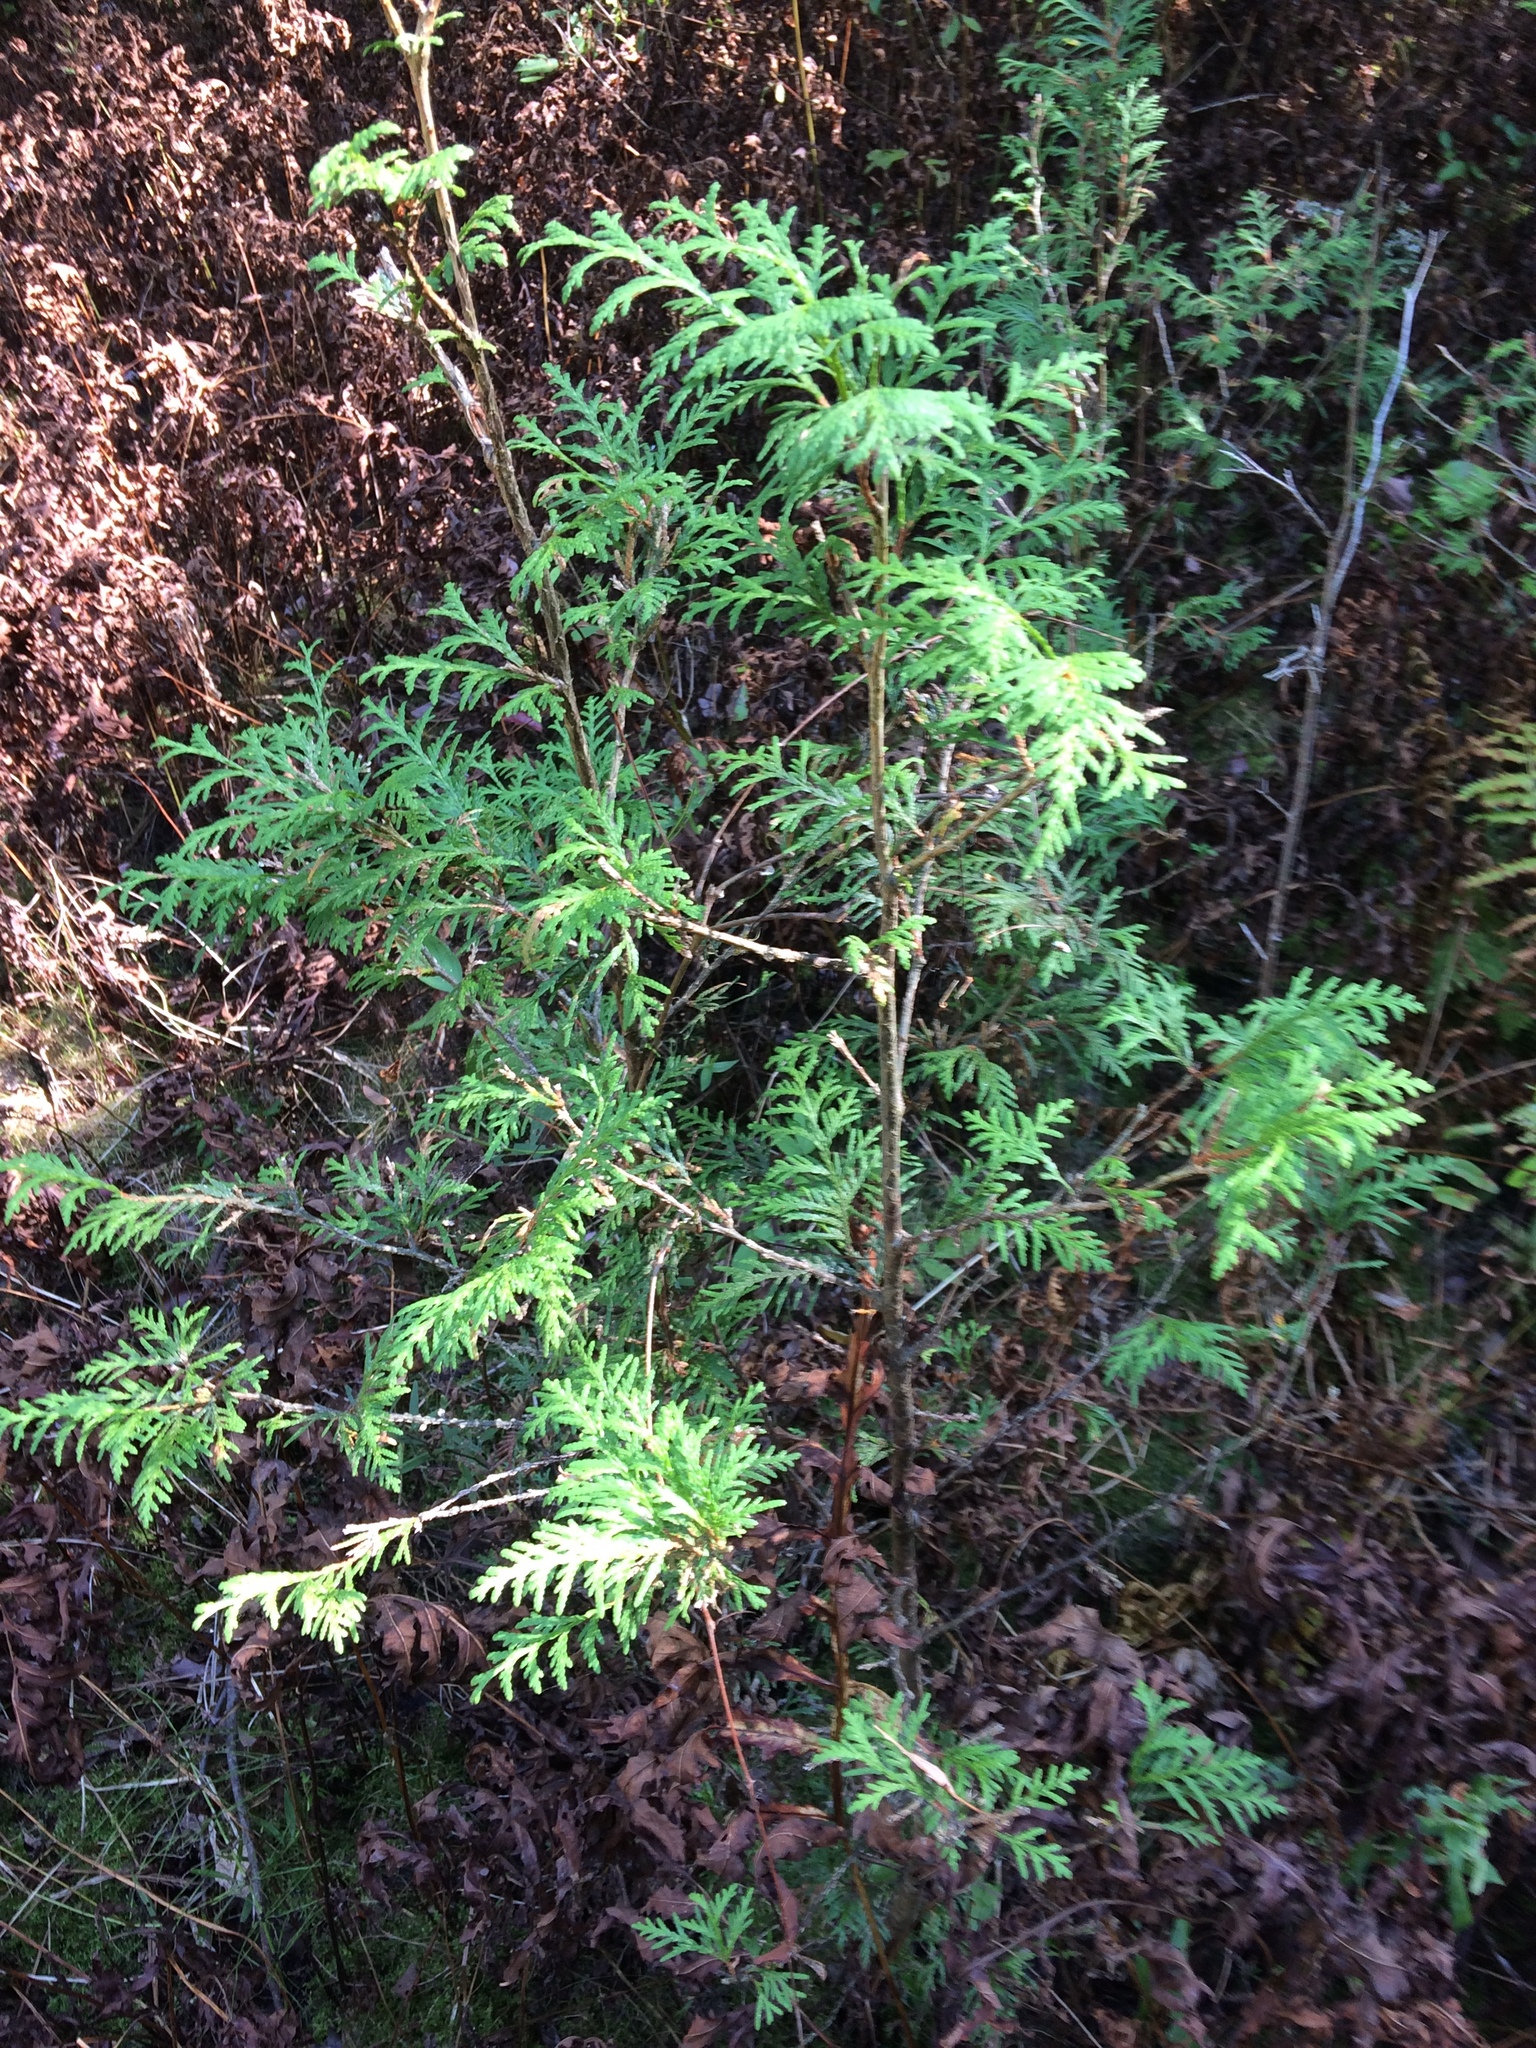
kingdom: Plantae
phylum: Tracheophyta
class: Pinopsida
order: Pinales
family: Cupressaceae
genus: Thuja
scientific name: Thuja occidentalis
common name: Northern white-cedar
